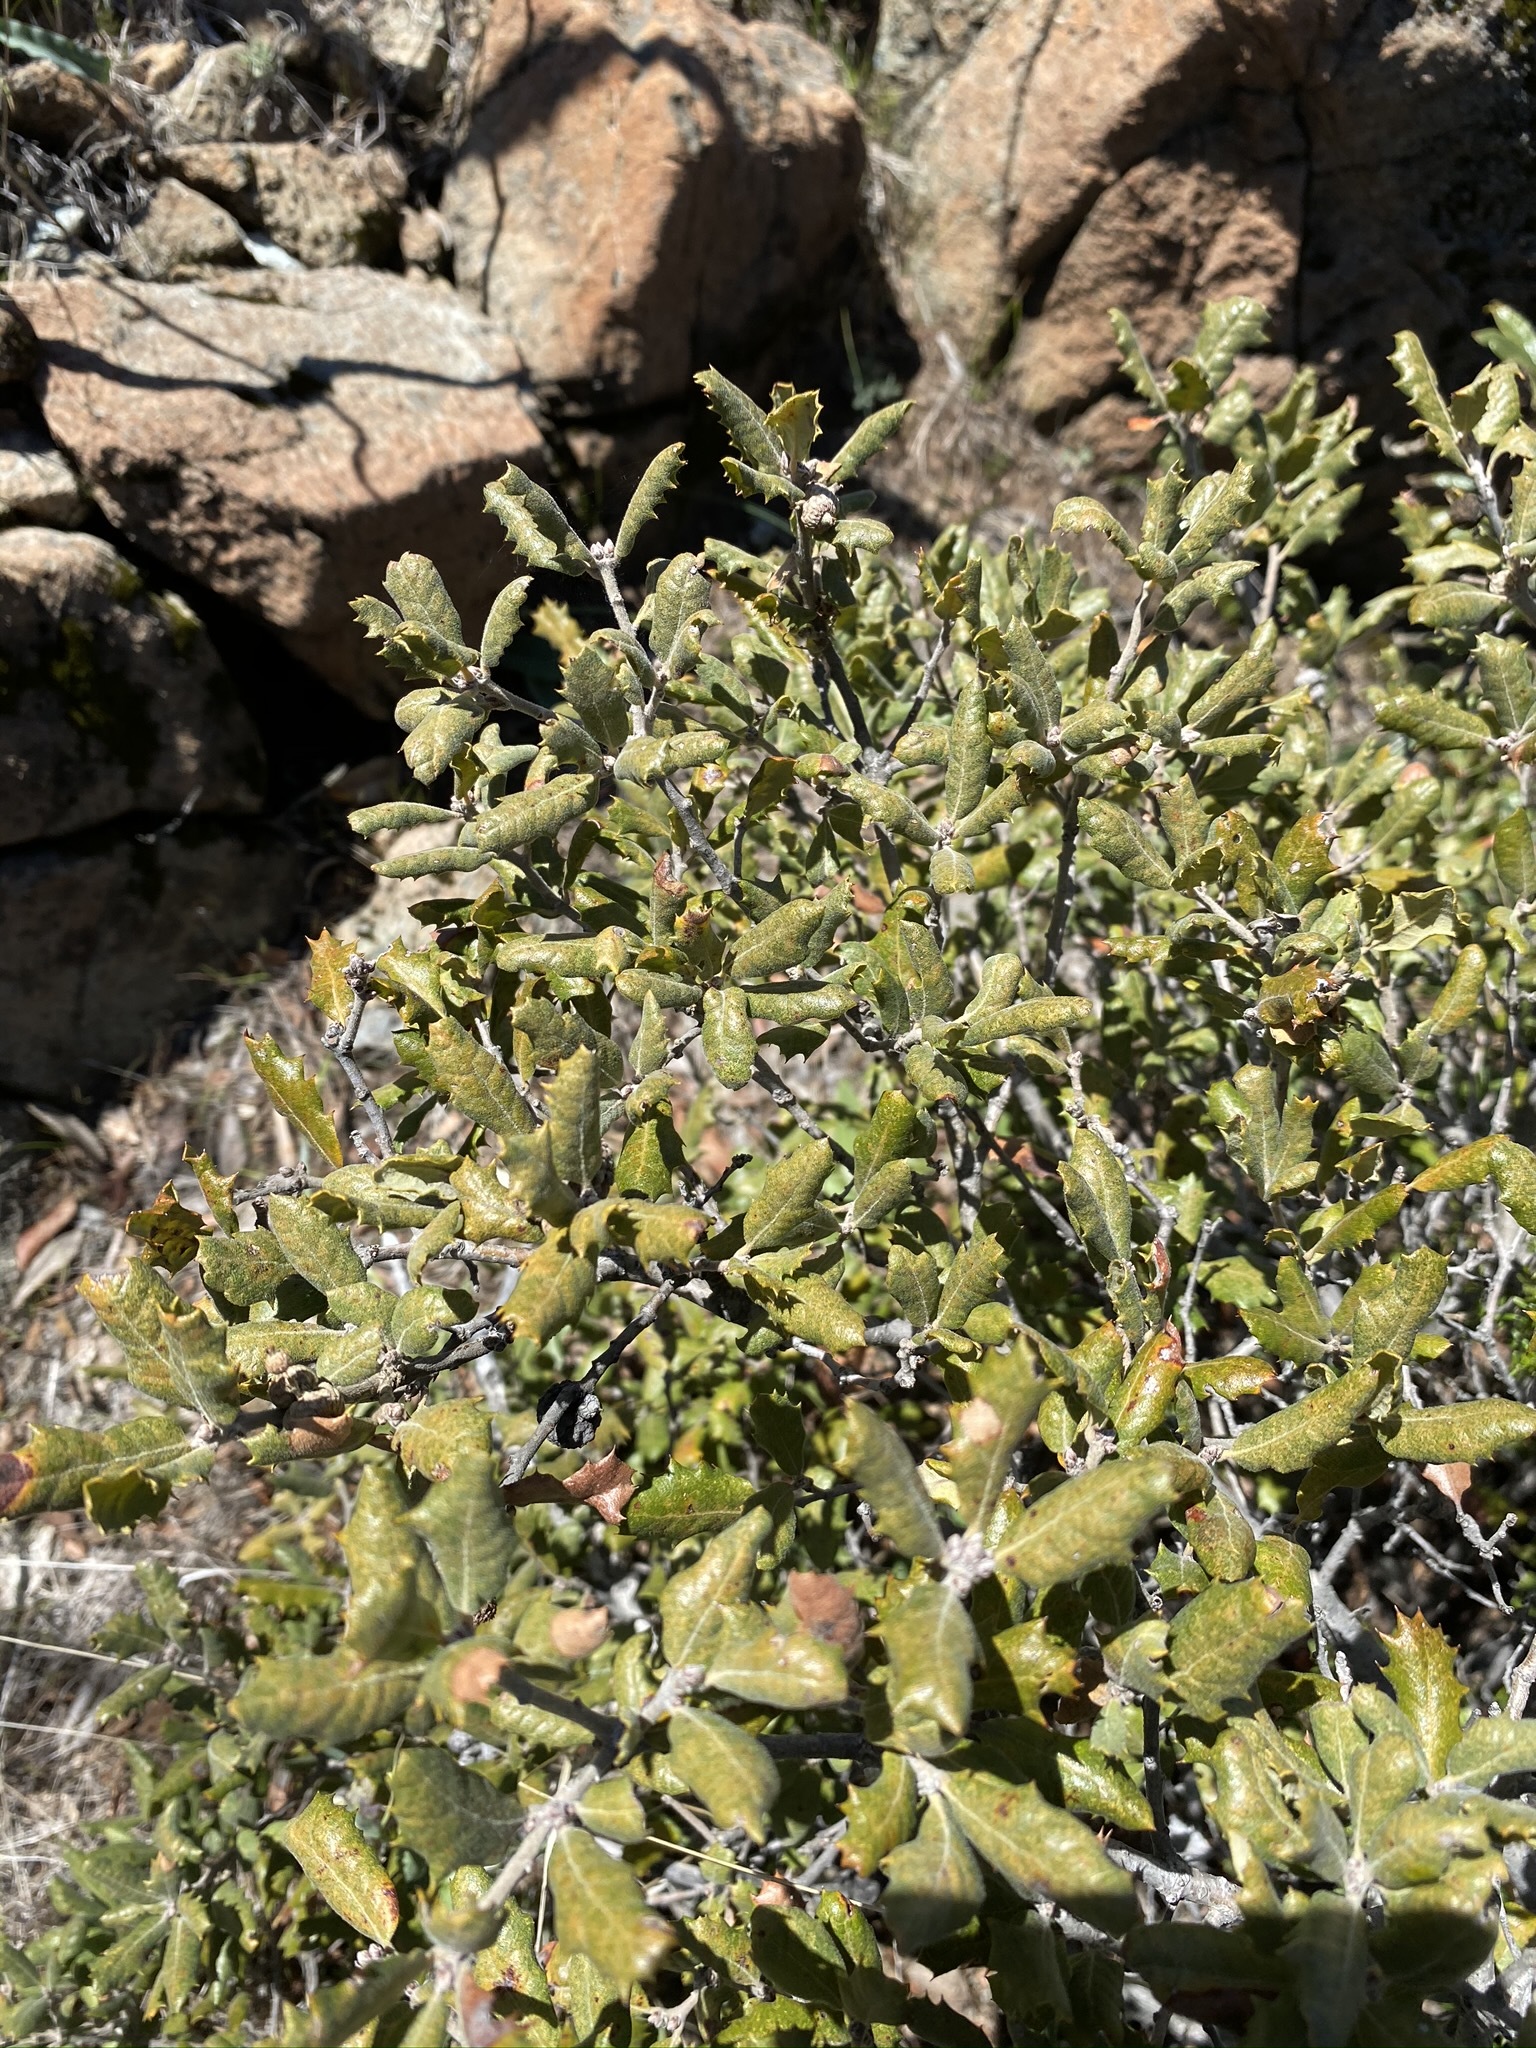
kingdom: Plantae
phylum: Tracheophyta
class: Magnoliopsida
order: Fagales
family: Fagaceae
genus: Quercus
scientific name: Quercus durata
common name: Leather oak
